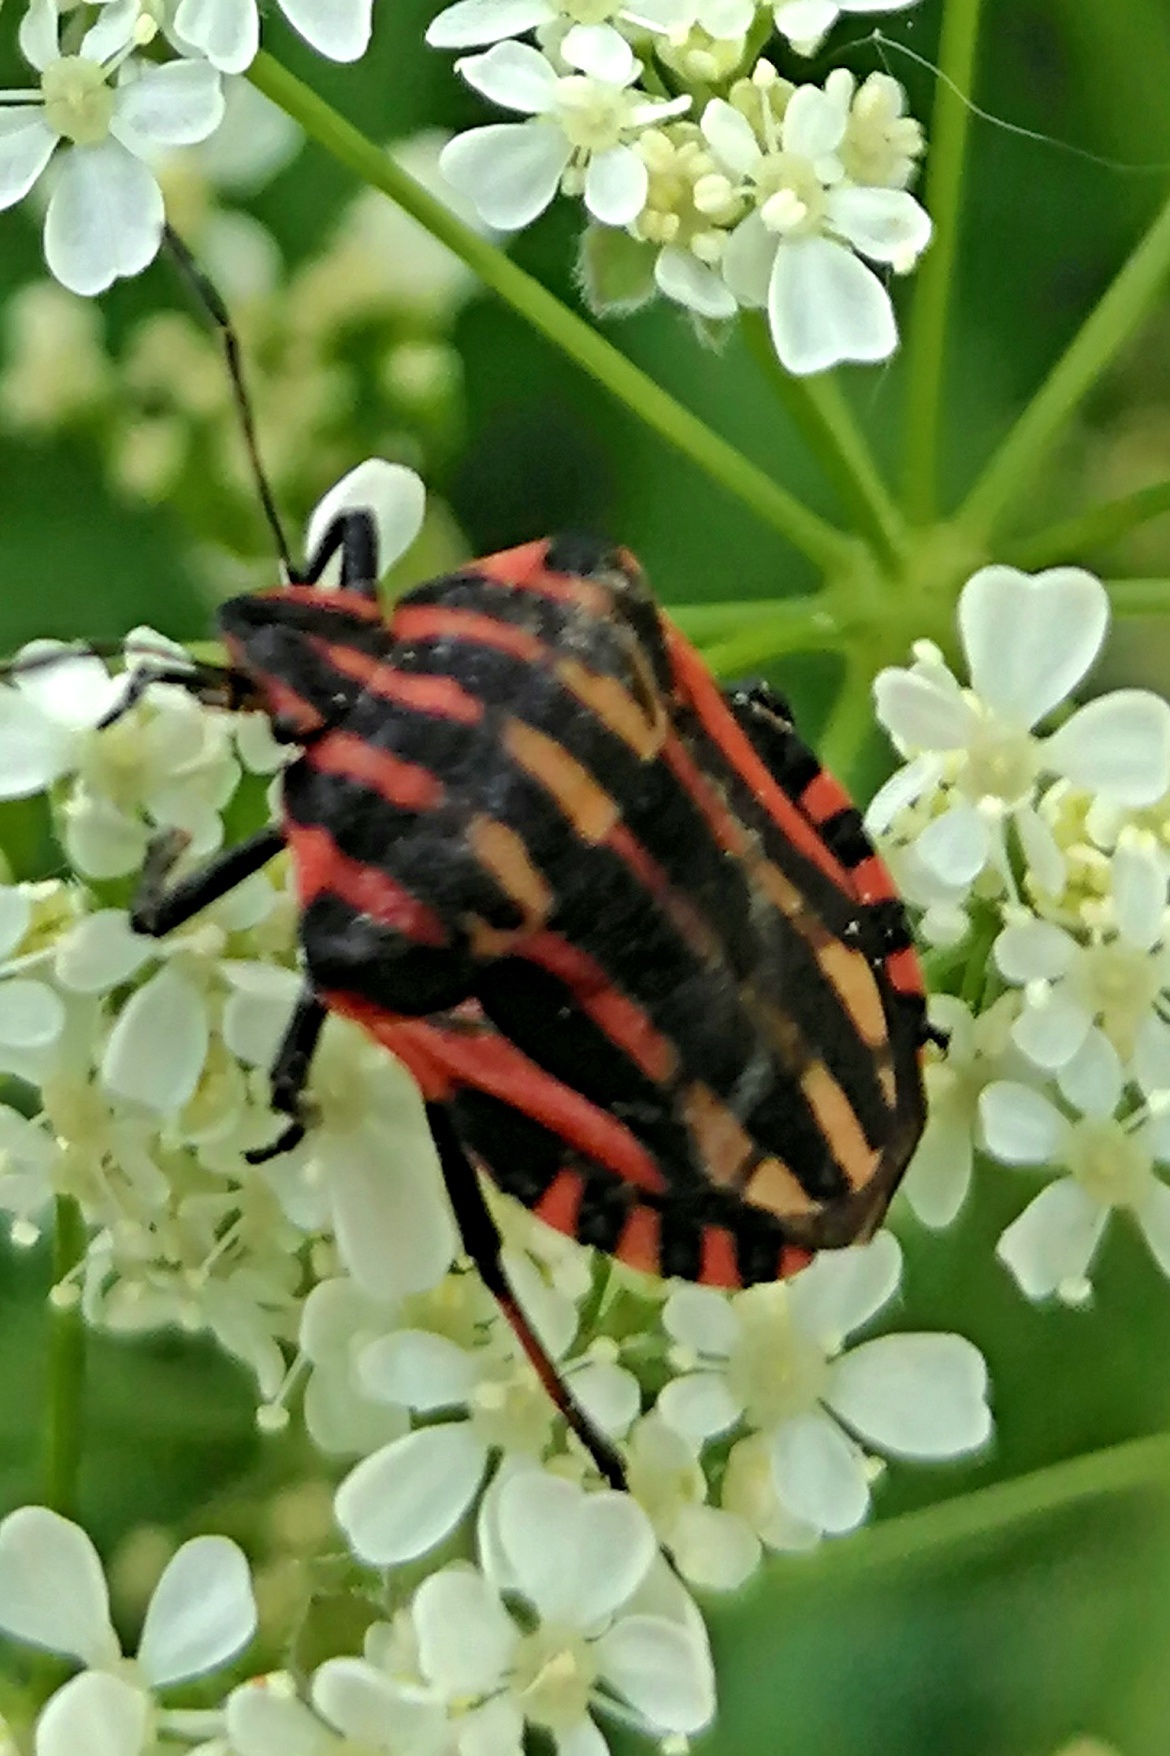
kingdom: Animalia
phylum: Arthropoda
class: Insecta
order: Hemiptera
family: Pentatomidae
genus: Graphosoma
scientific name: Graphosoma italicum
